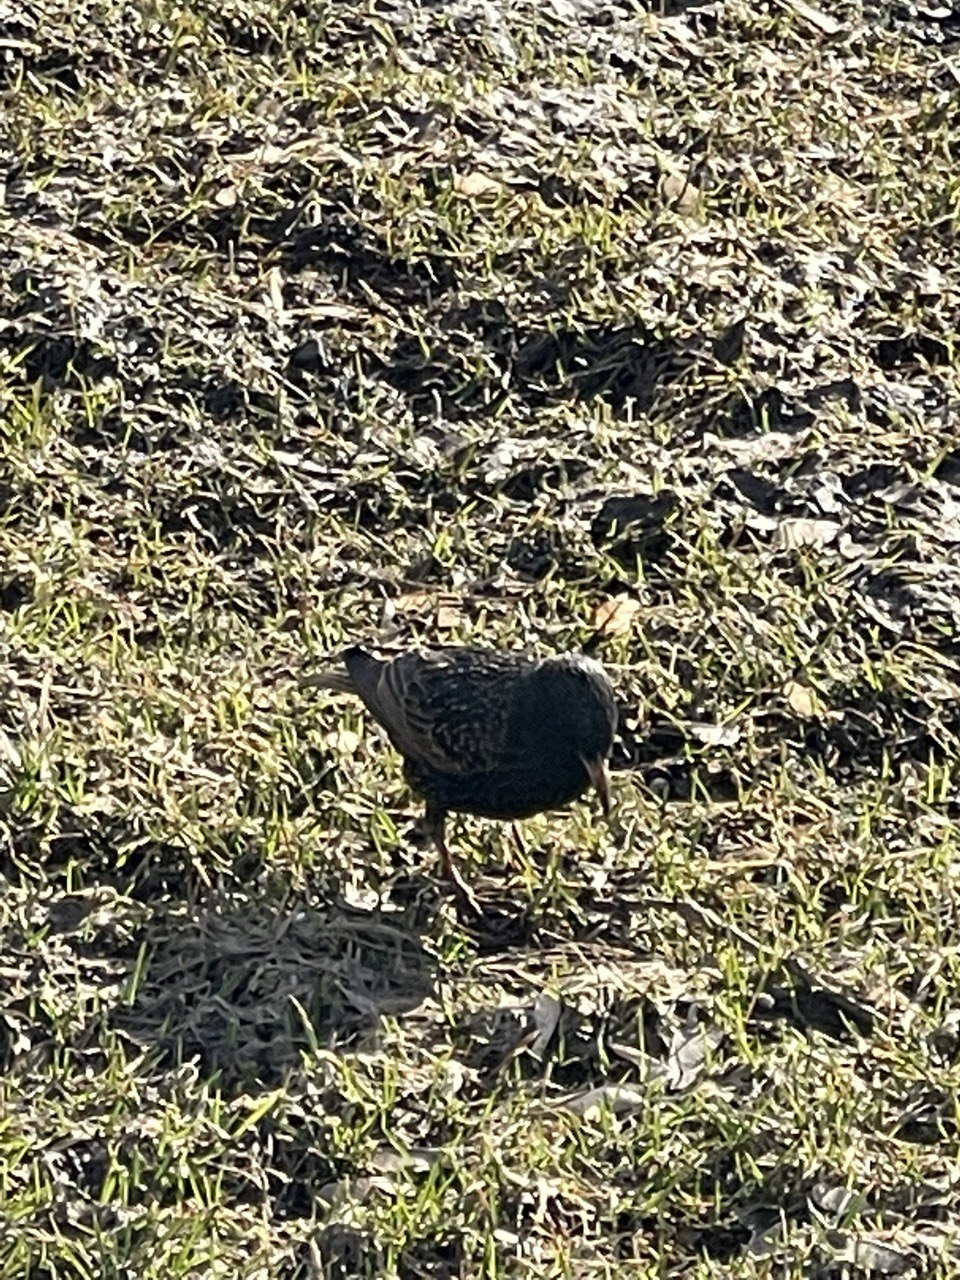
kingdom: Animalia
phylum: Chordata
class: Aves
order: Passeriformes
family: Sturnidae
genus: Sturnus
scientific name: Sturnus vulgaris
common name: Common starling
